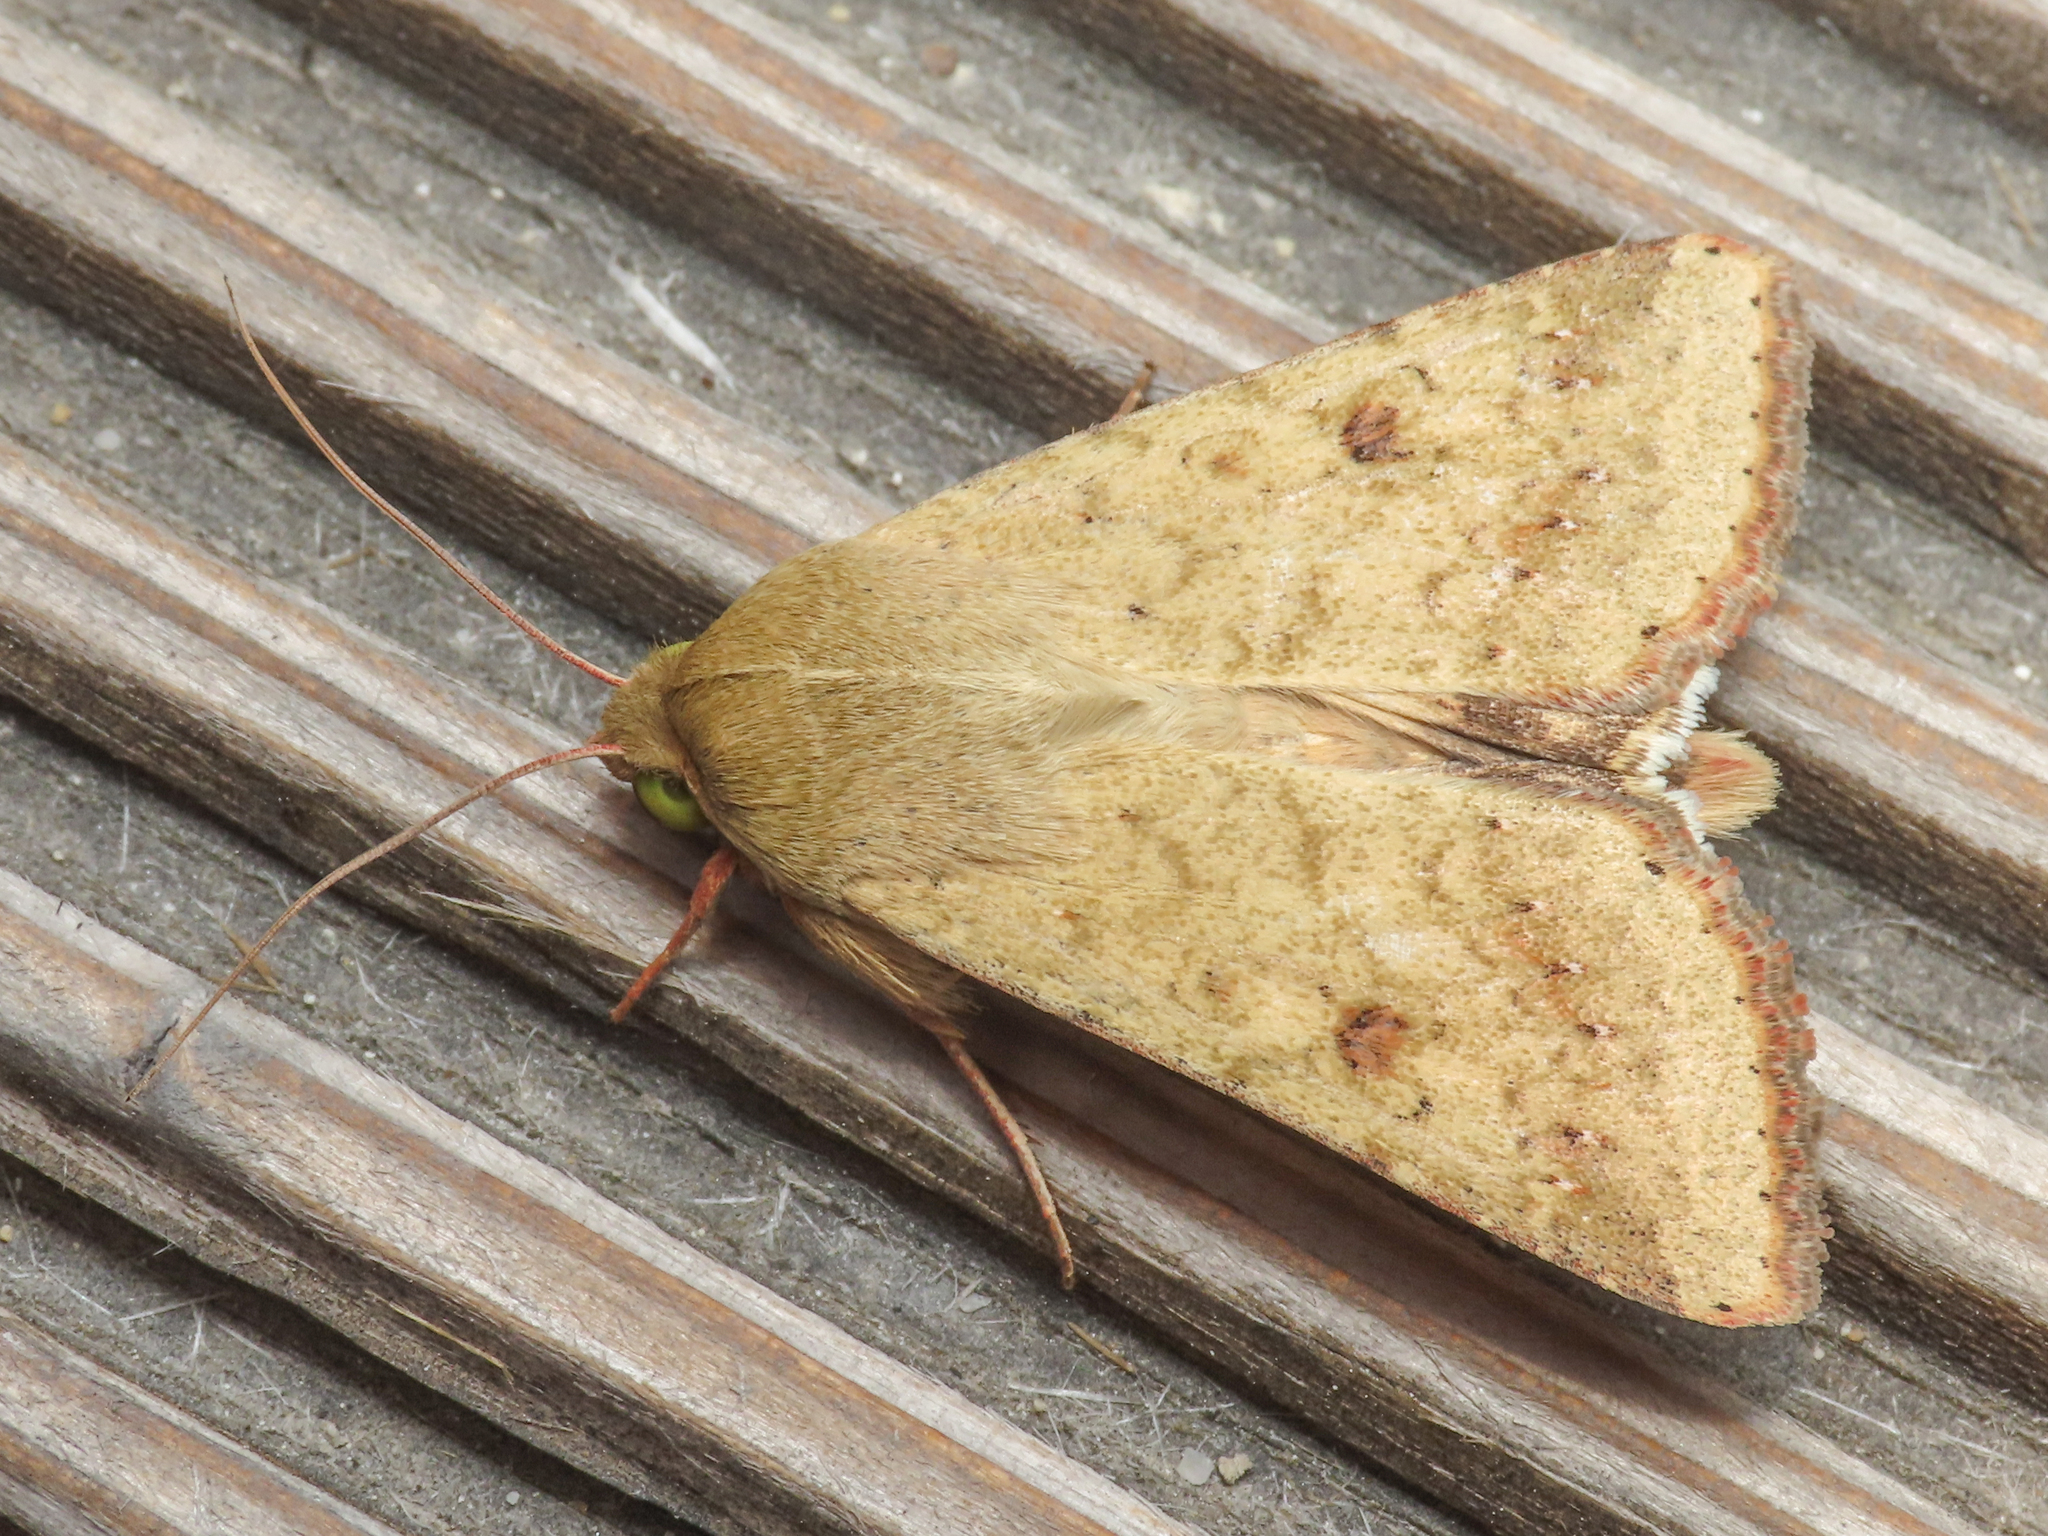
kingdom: Animalia
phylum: Arthropoda
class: Insecta
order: Lepidoptera
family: Noctuidae
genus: Helicoverpa
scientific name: Helicoverpa armigera
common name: Cotton bollworm
